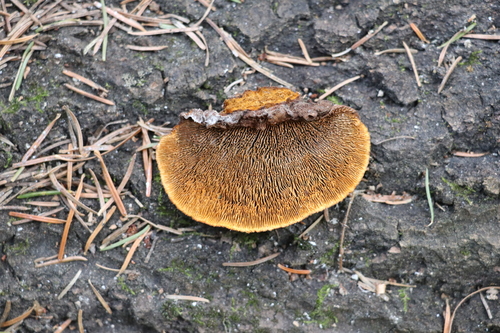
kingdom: Fungi
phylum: Basidiomycota
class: Agaricomycetes
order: Gloeophyllales
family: Gloeophyllaceae
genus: Gloeophyllum
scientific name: Gloeophyllum sepiarium
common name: Conifer mazegill
